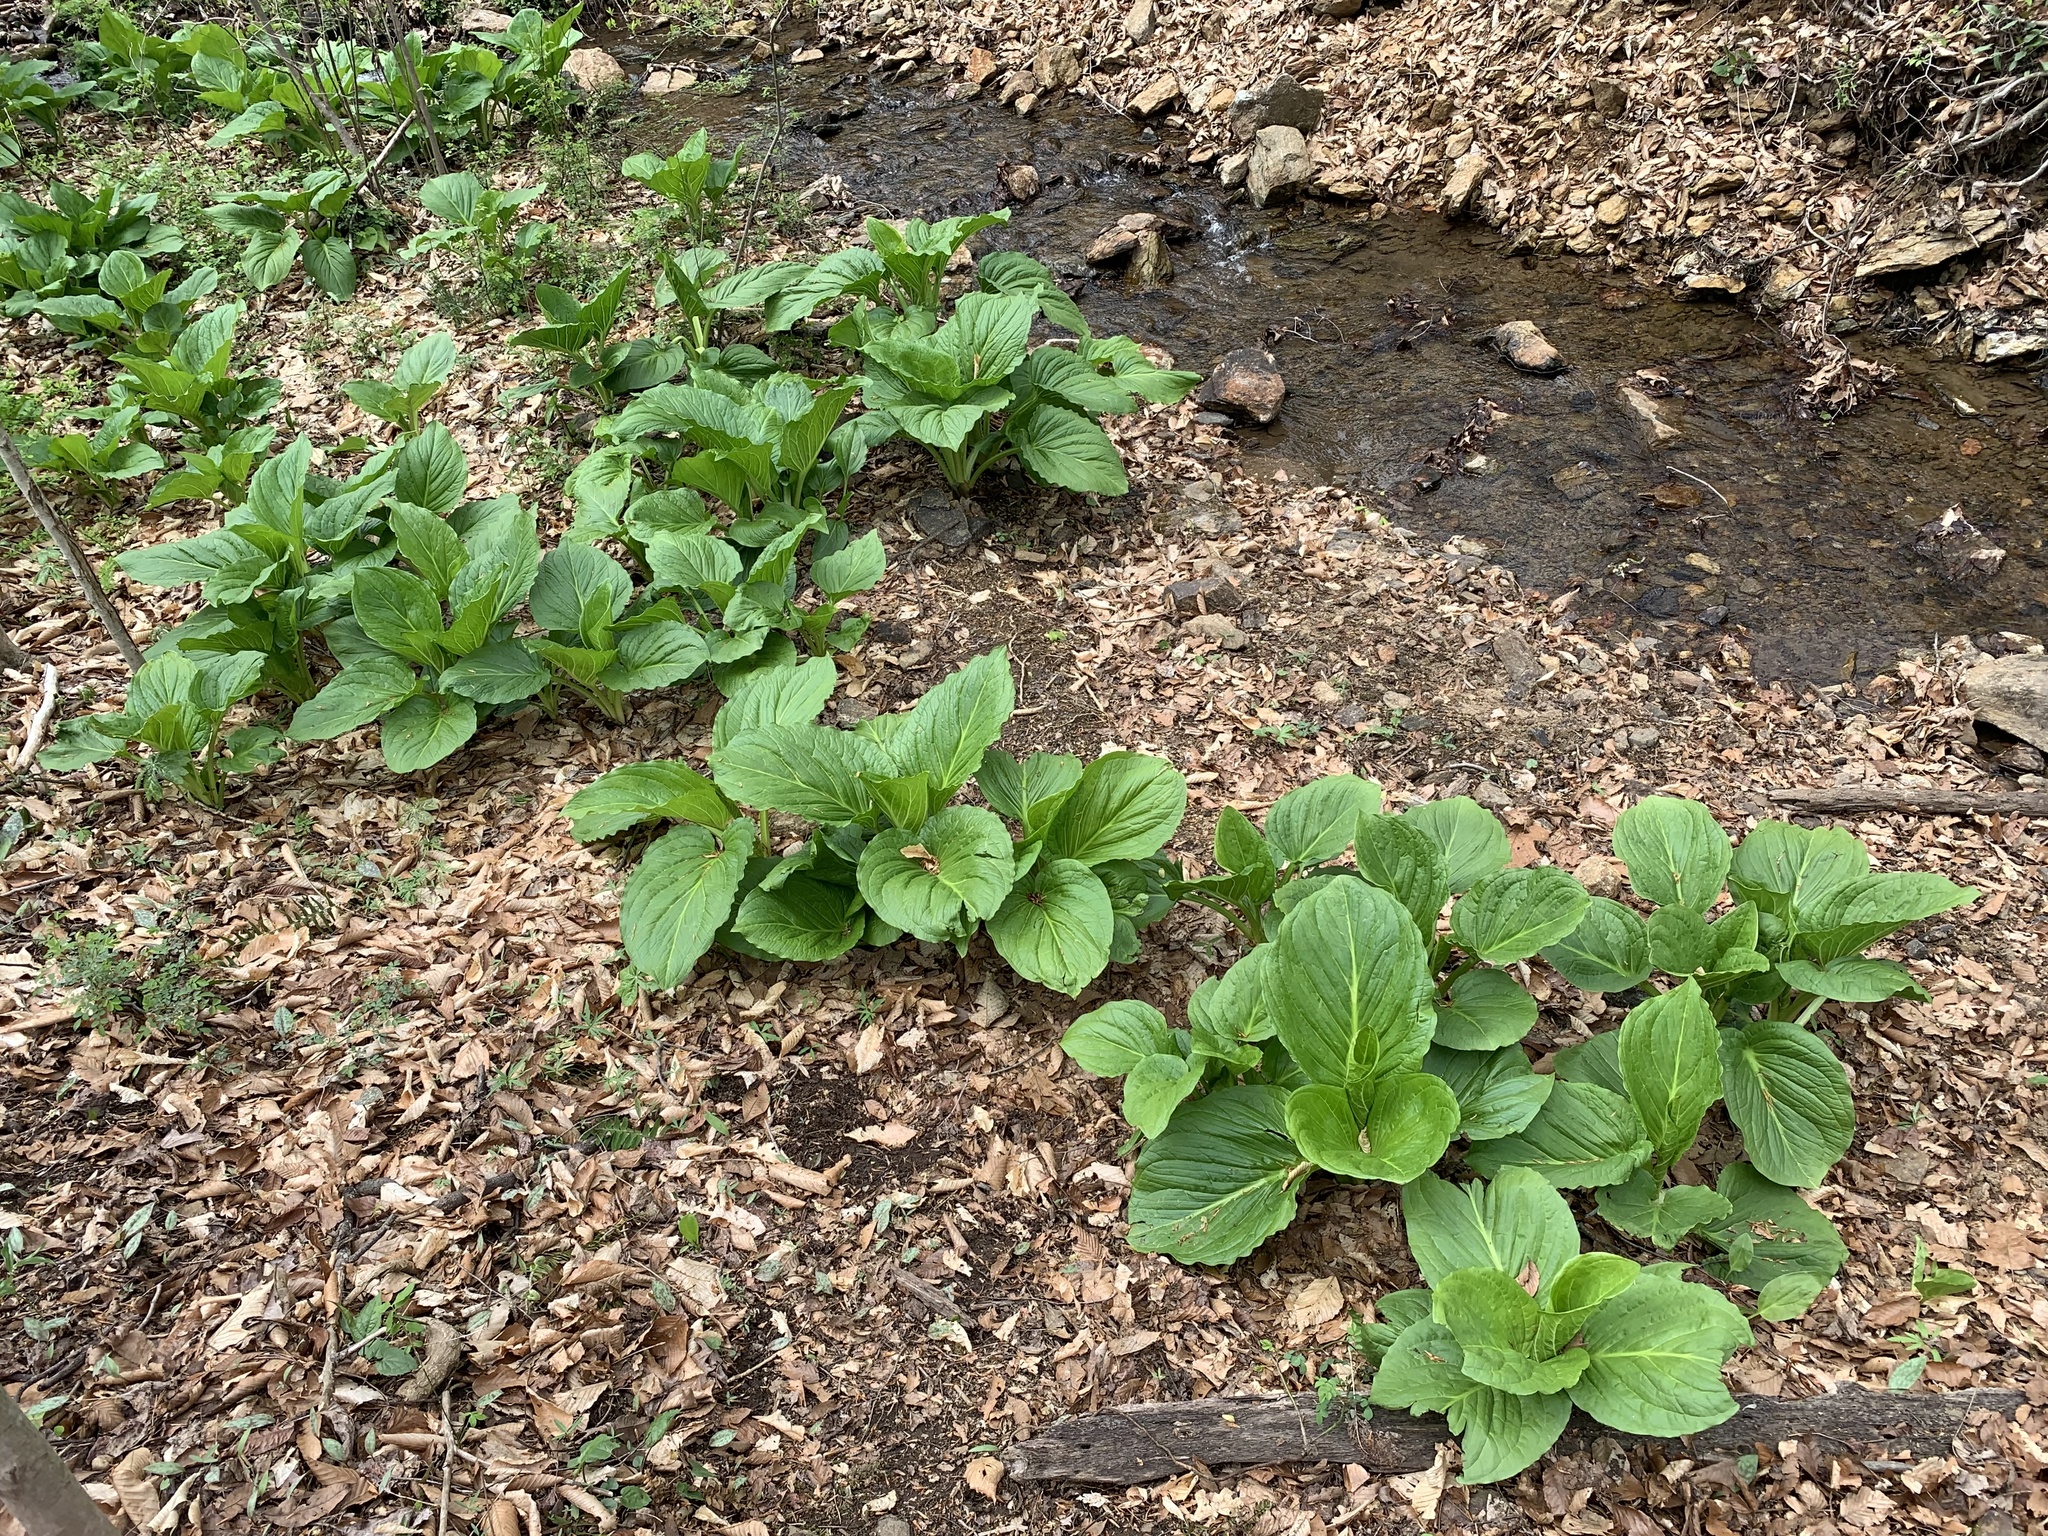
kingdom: Plantae
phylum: Tracheophyta
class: Liliopsida
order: Alismatales
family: Araceae
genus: Symplocarpus
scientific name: Symplocarpus foetidus
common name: Eastern skunk cabbage
